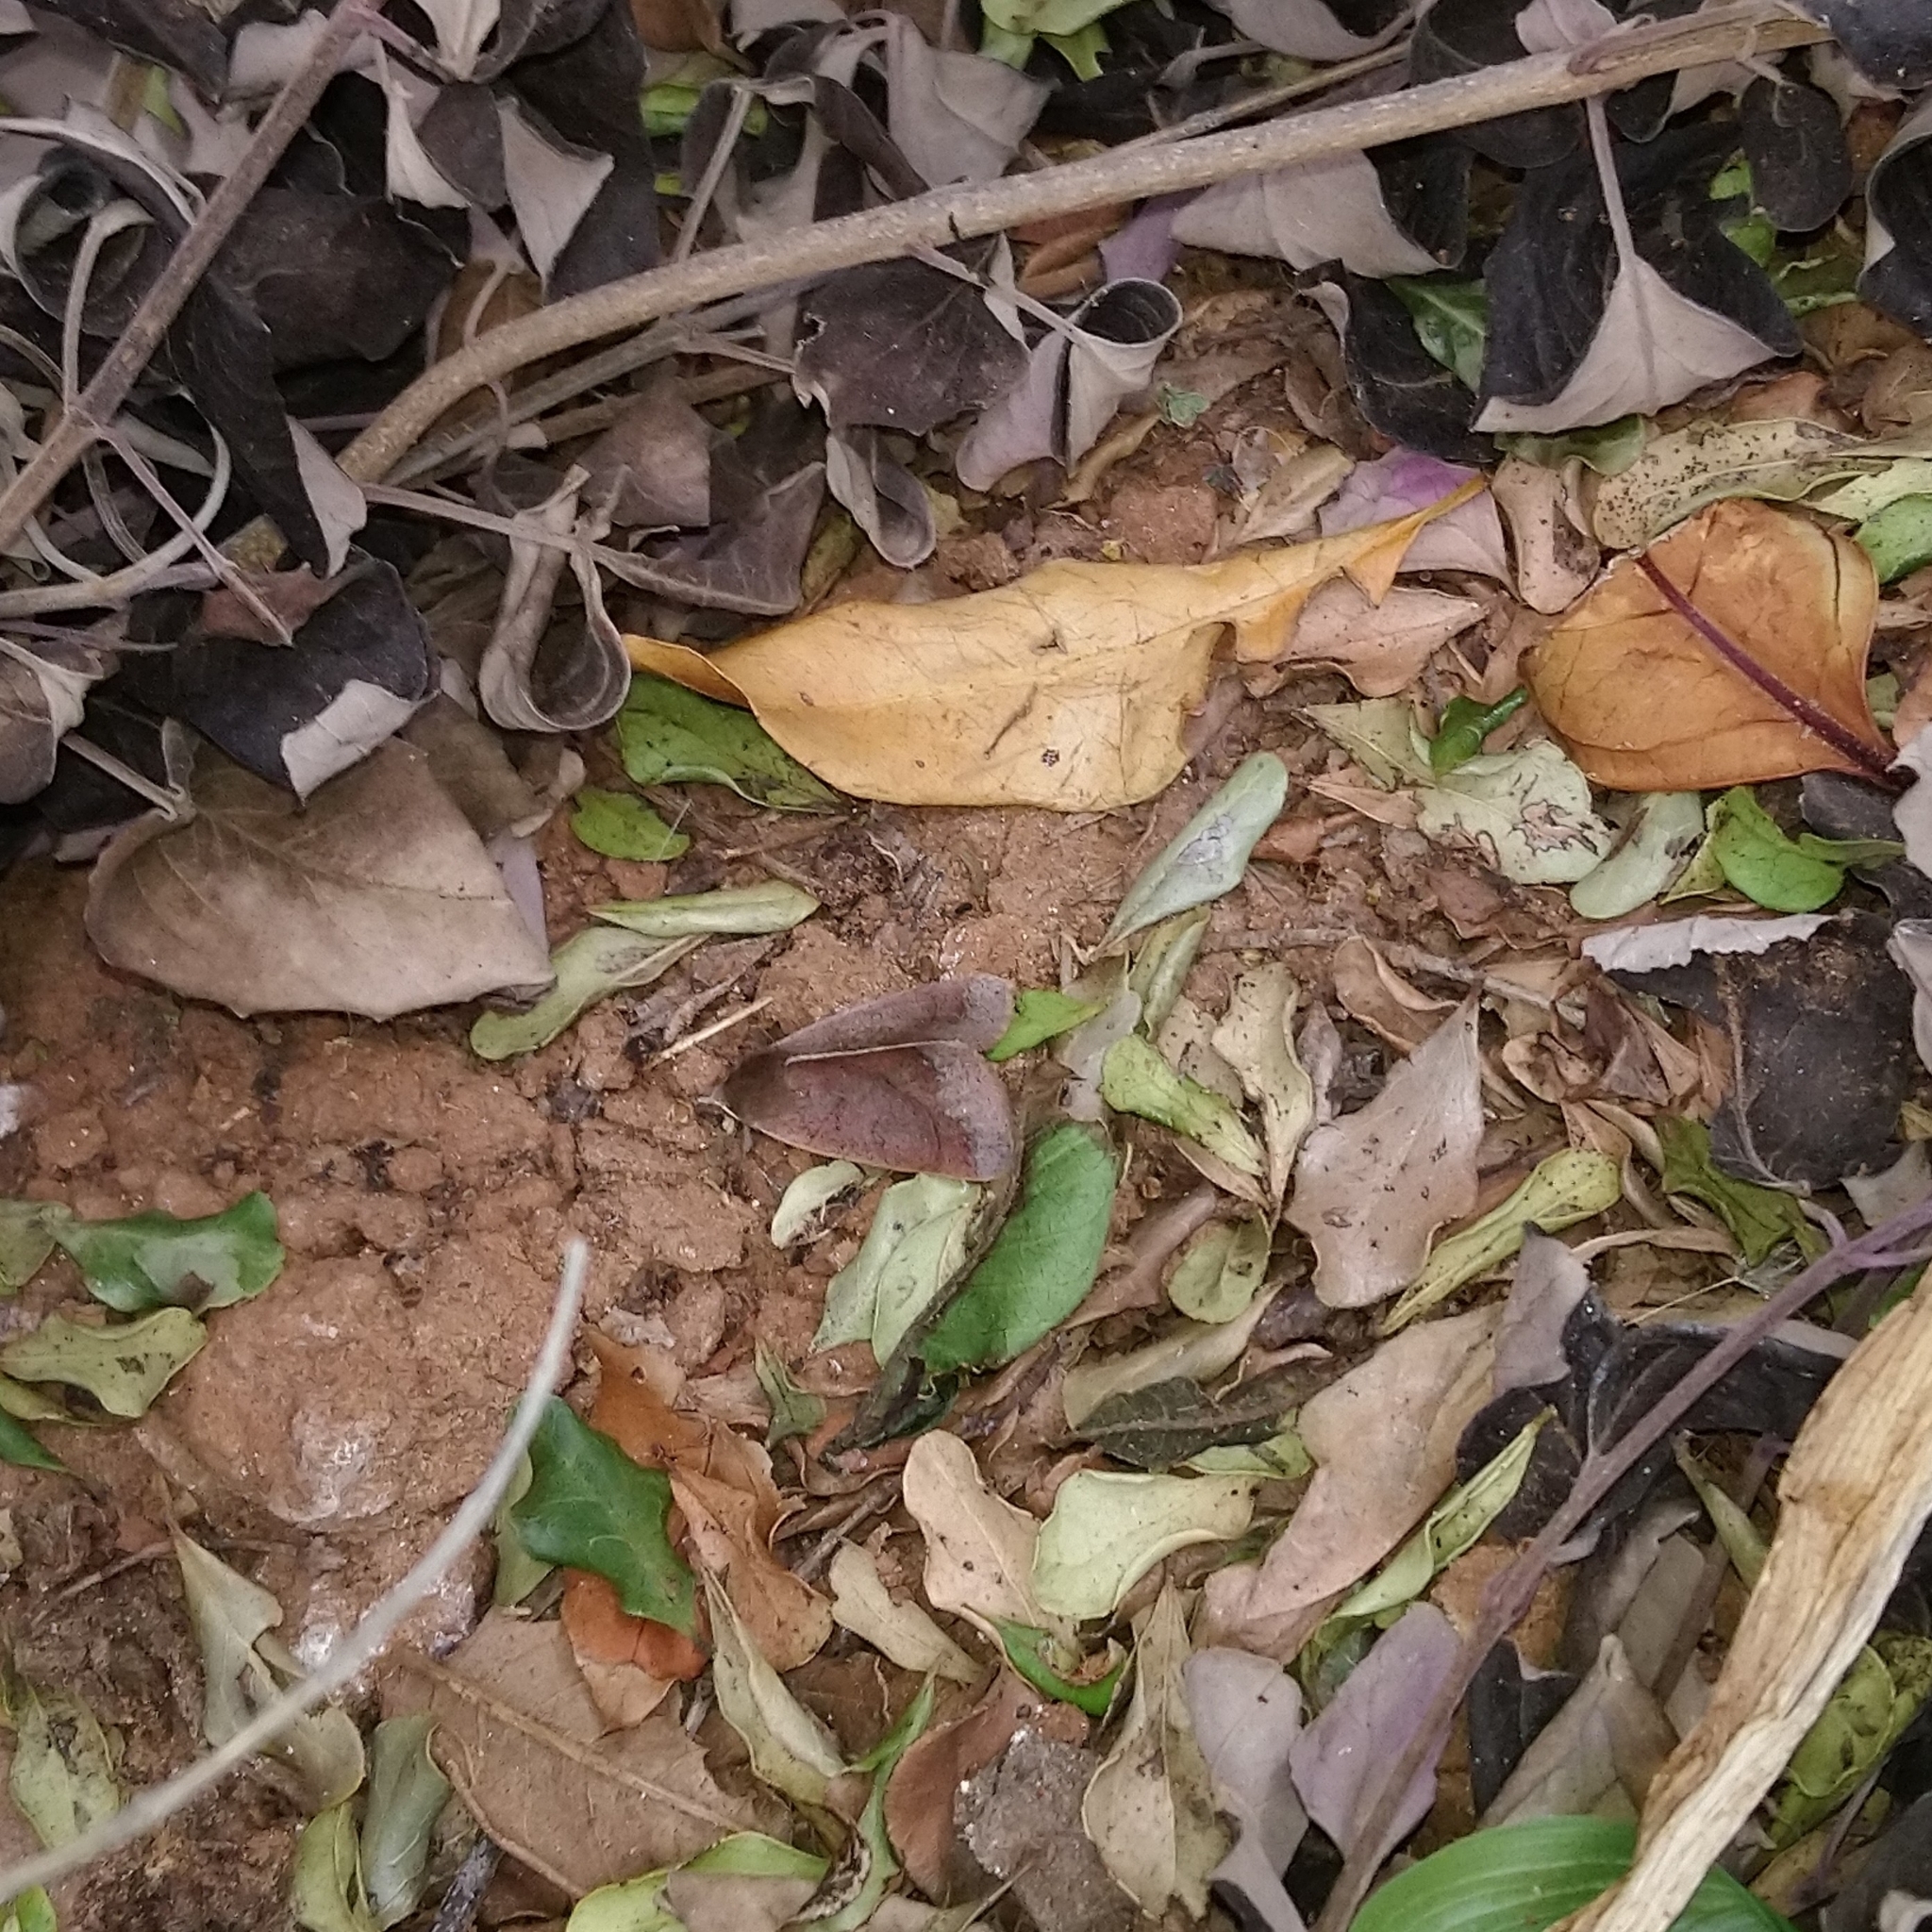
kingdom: Animalia
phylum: Arthropoda
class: Insecta
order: Lepidoptera
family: Erebidae
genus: Ophiusa
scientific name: Ophiusa selenaris
